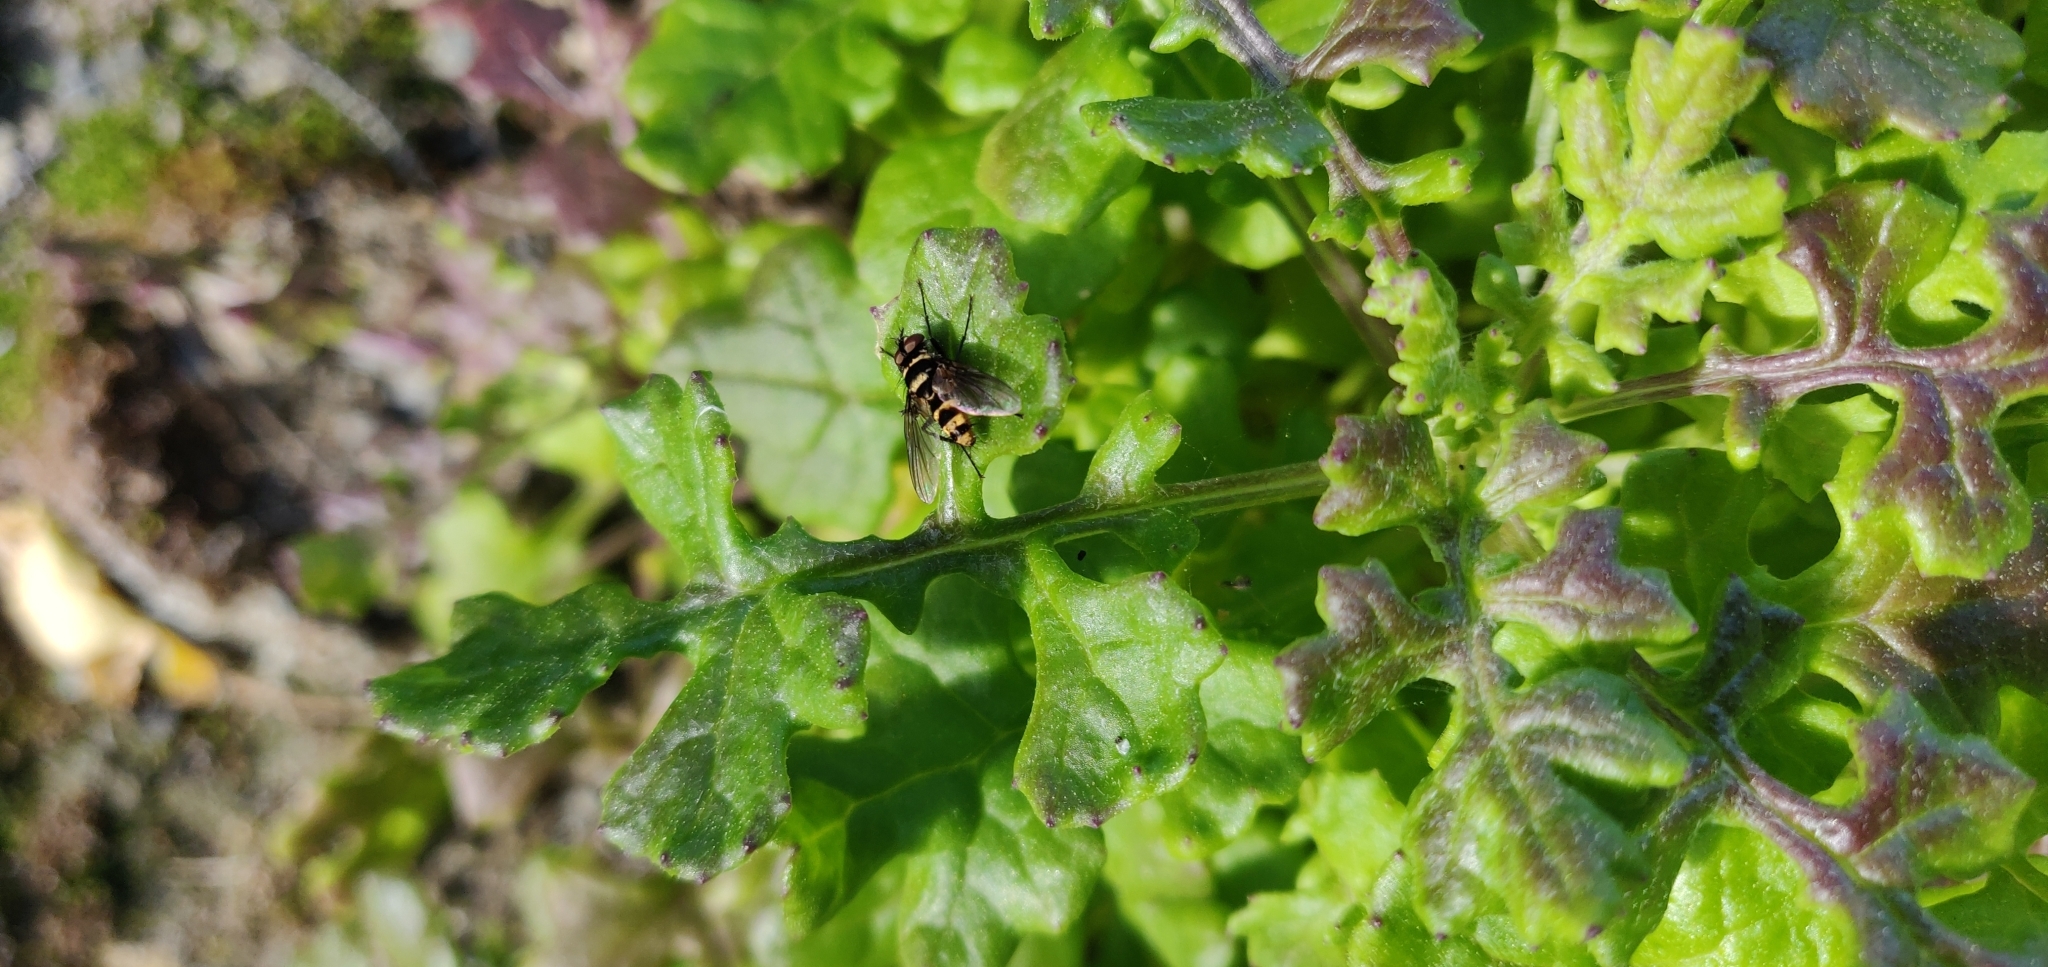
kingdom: Animalia
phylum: Arthropoda
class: Insecta
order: Diptera
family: Tachinidae
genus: Trigonospila
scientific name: Trigonospila brevifacies
